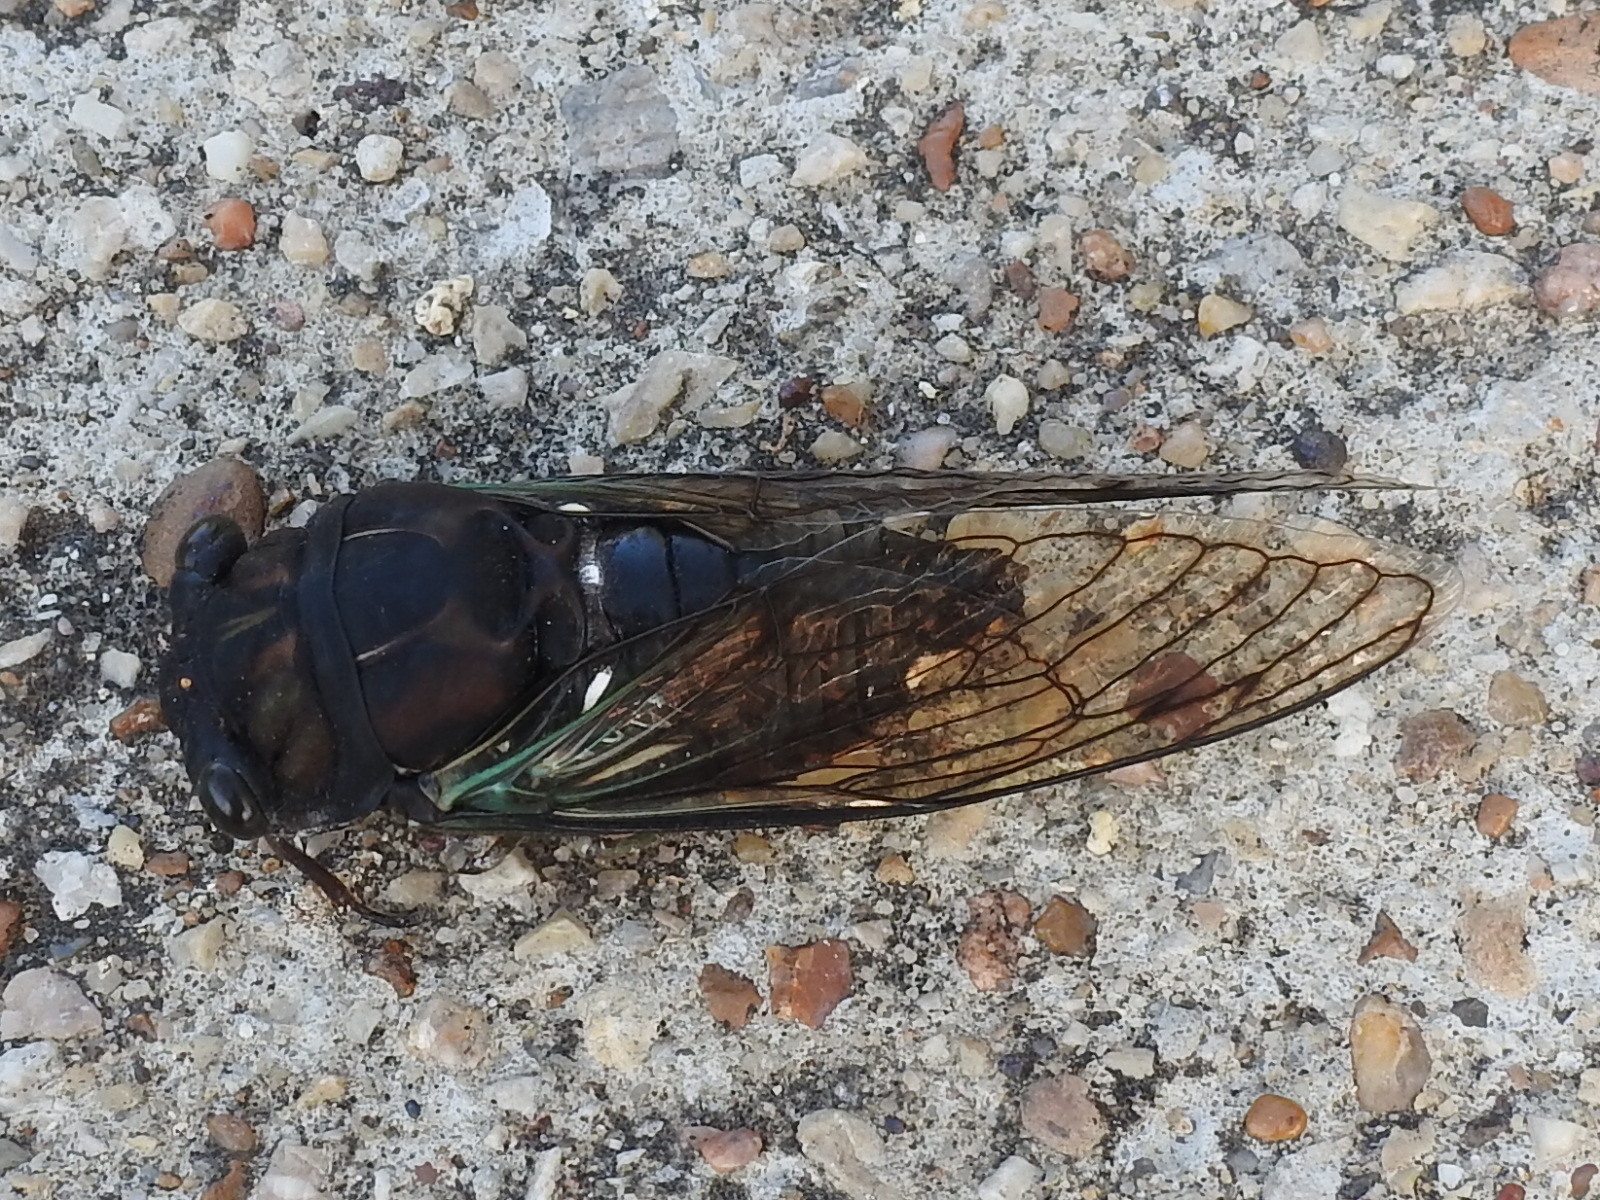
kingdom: Animalia
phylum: Arthropoda
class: Insecta
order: Hemiptera
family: Cicadidae
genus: Neotibicen
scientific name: Neotibicen lyricen
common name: Lyric cicada
